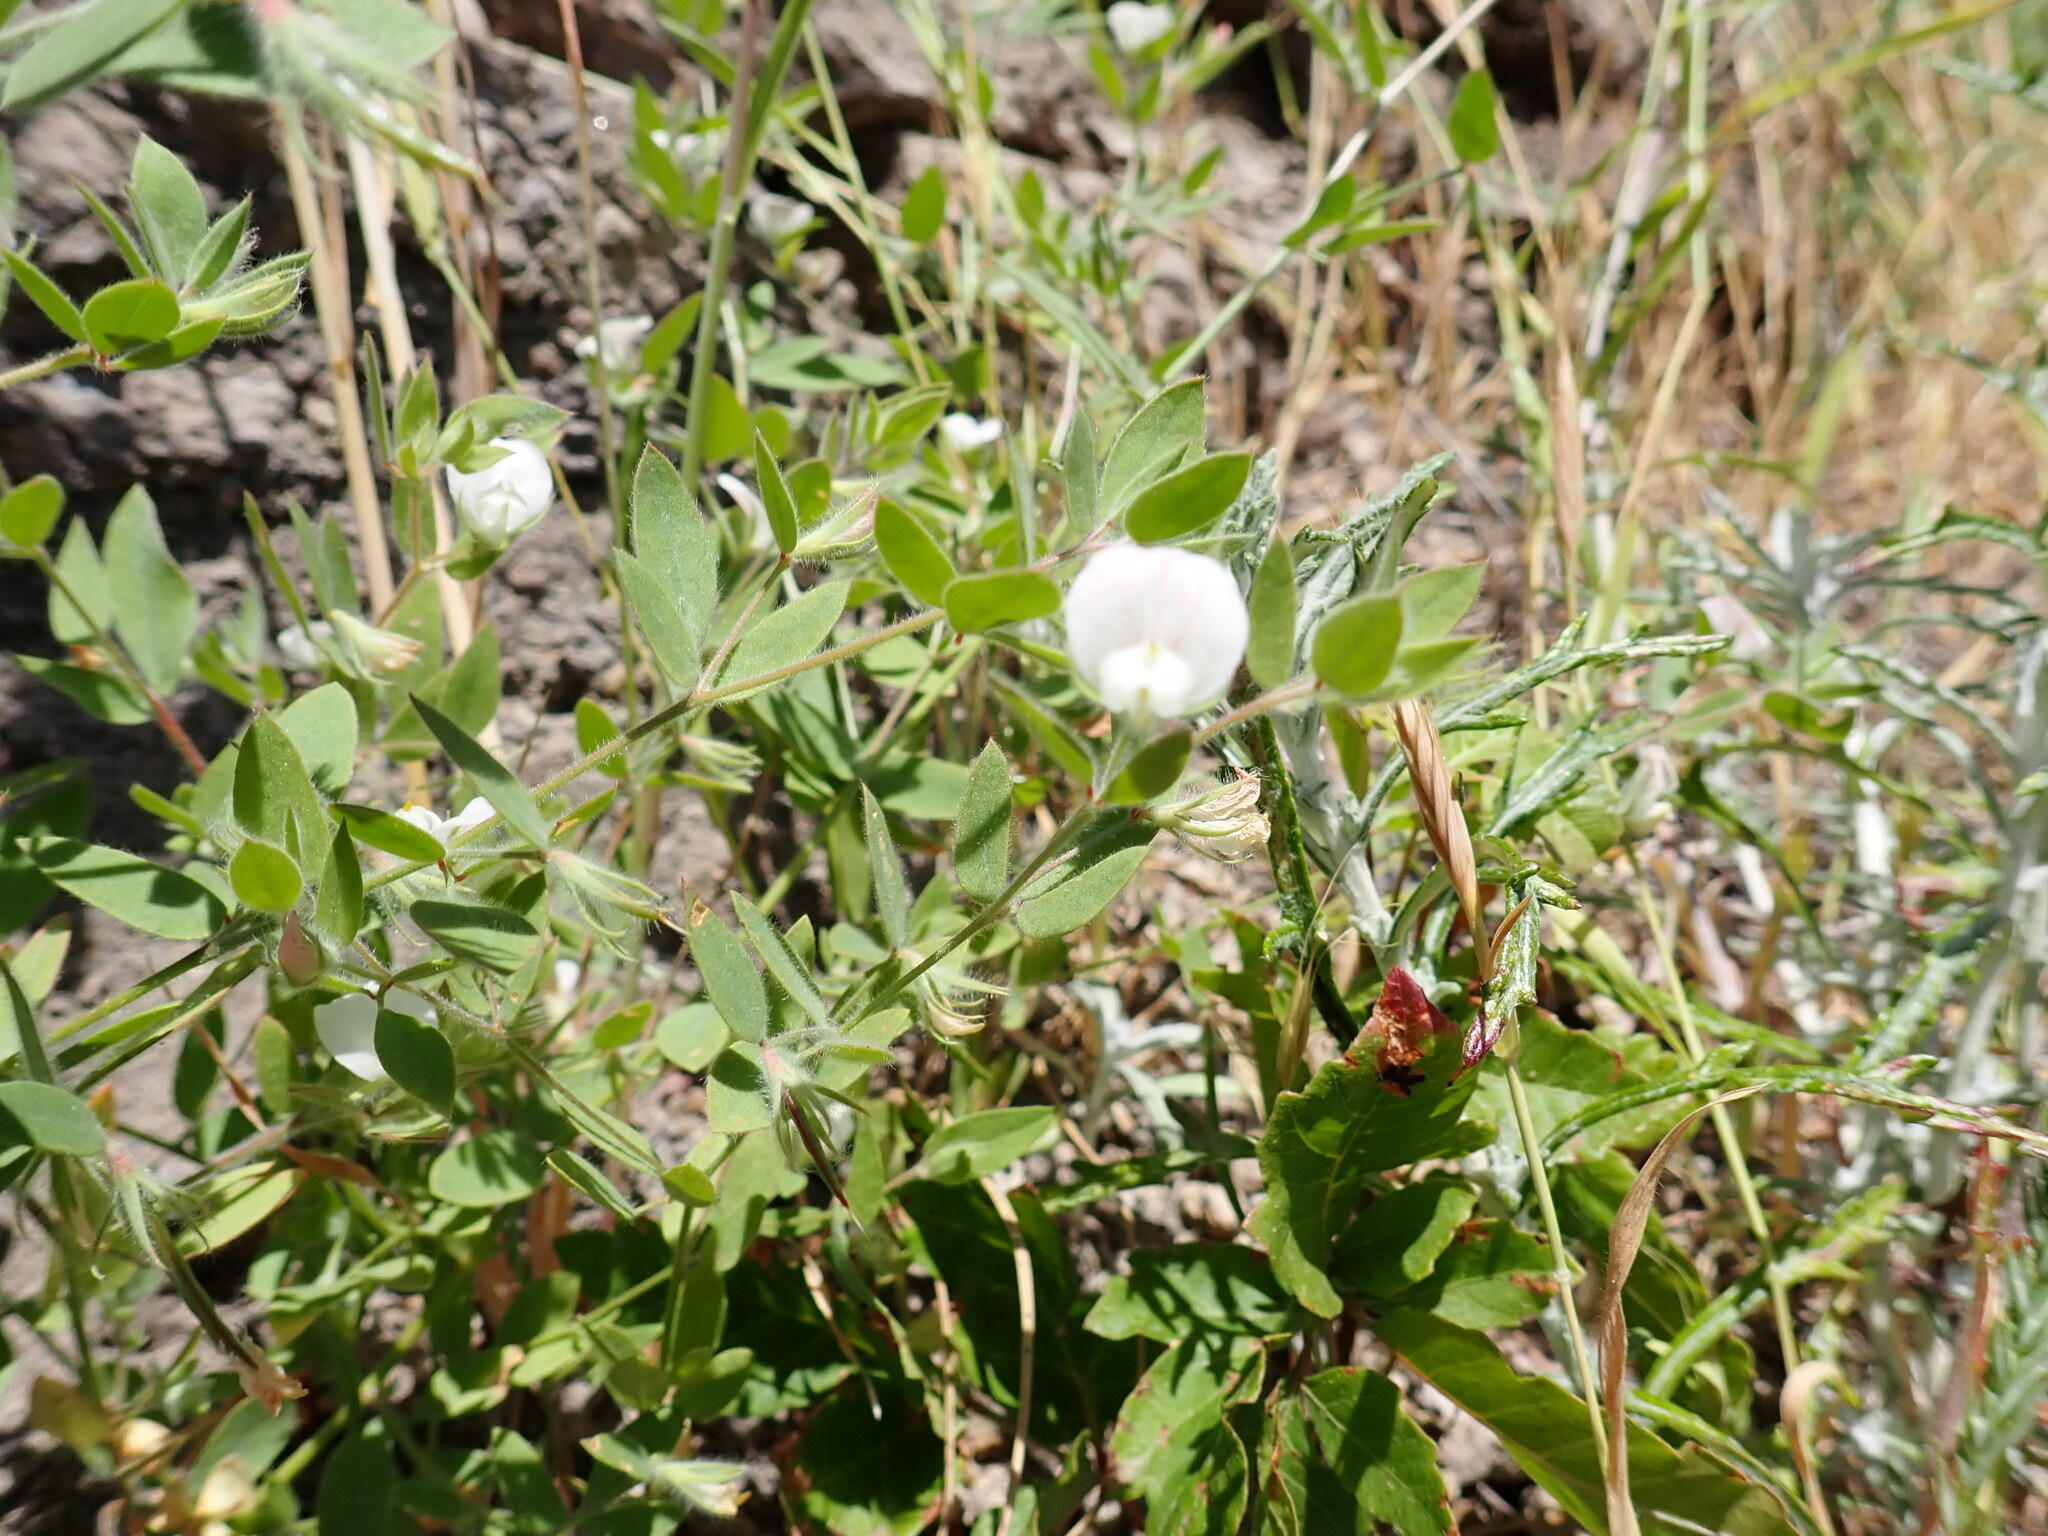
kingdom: Plantae
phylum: Tracheophyta
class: Magnoliopsida
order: Fabales
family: Fabaceae
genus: Acmispon
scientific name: Acmispon americanus
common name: American bird's-foot trefoil
